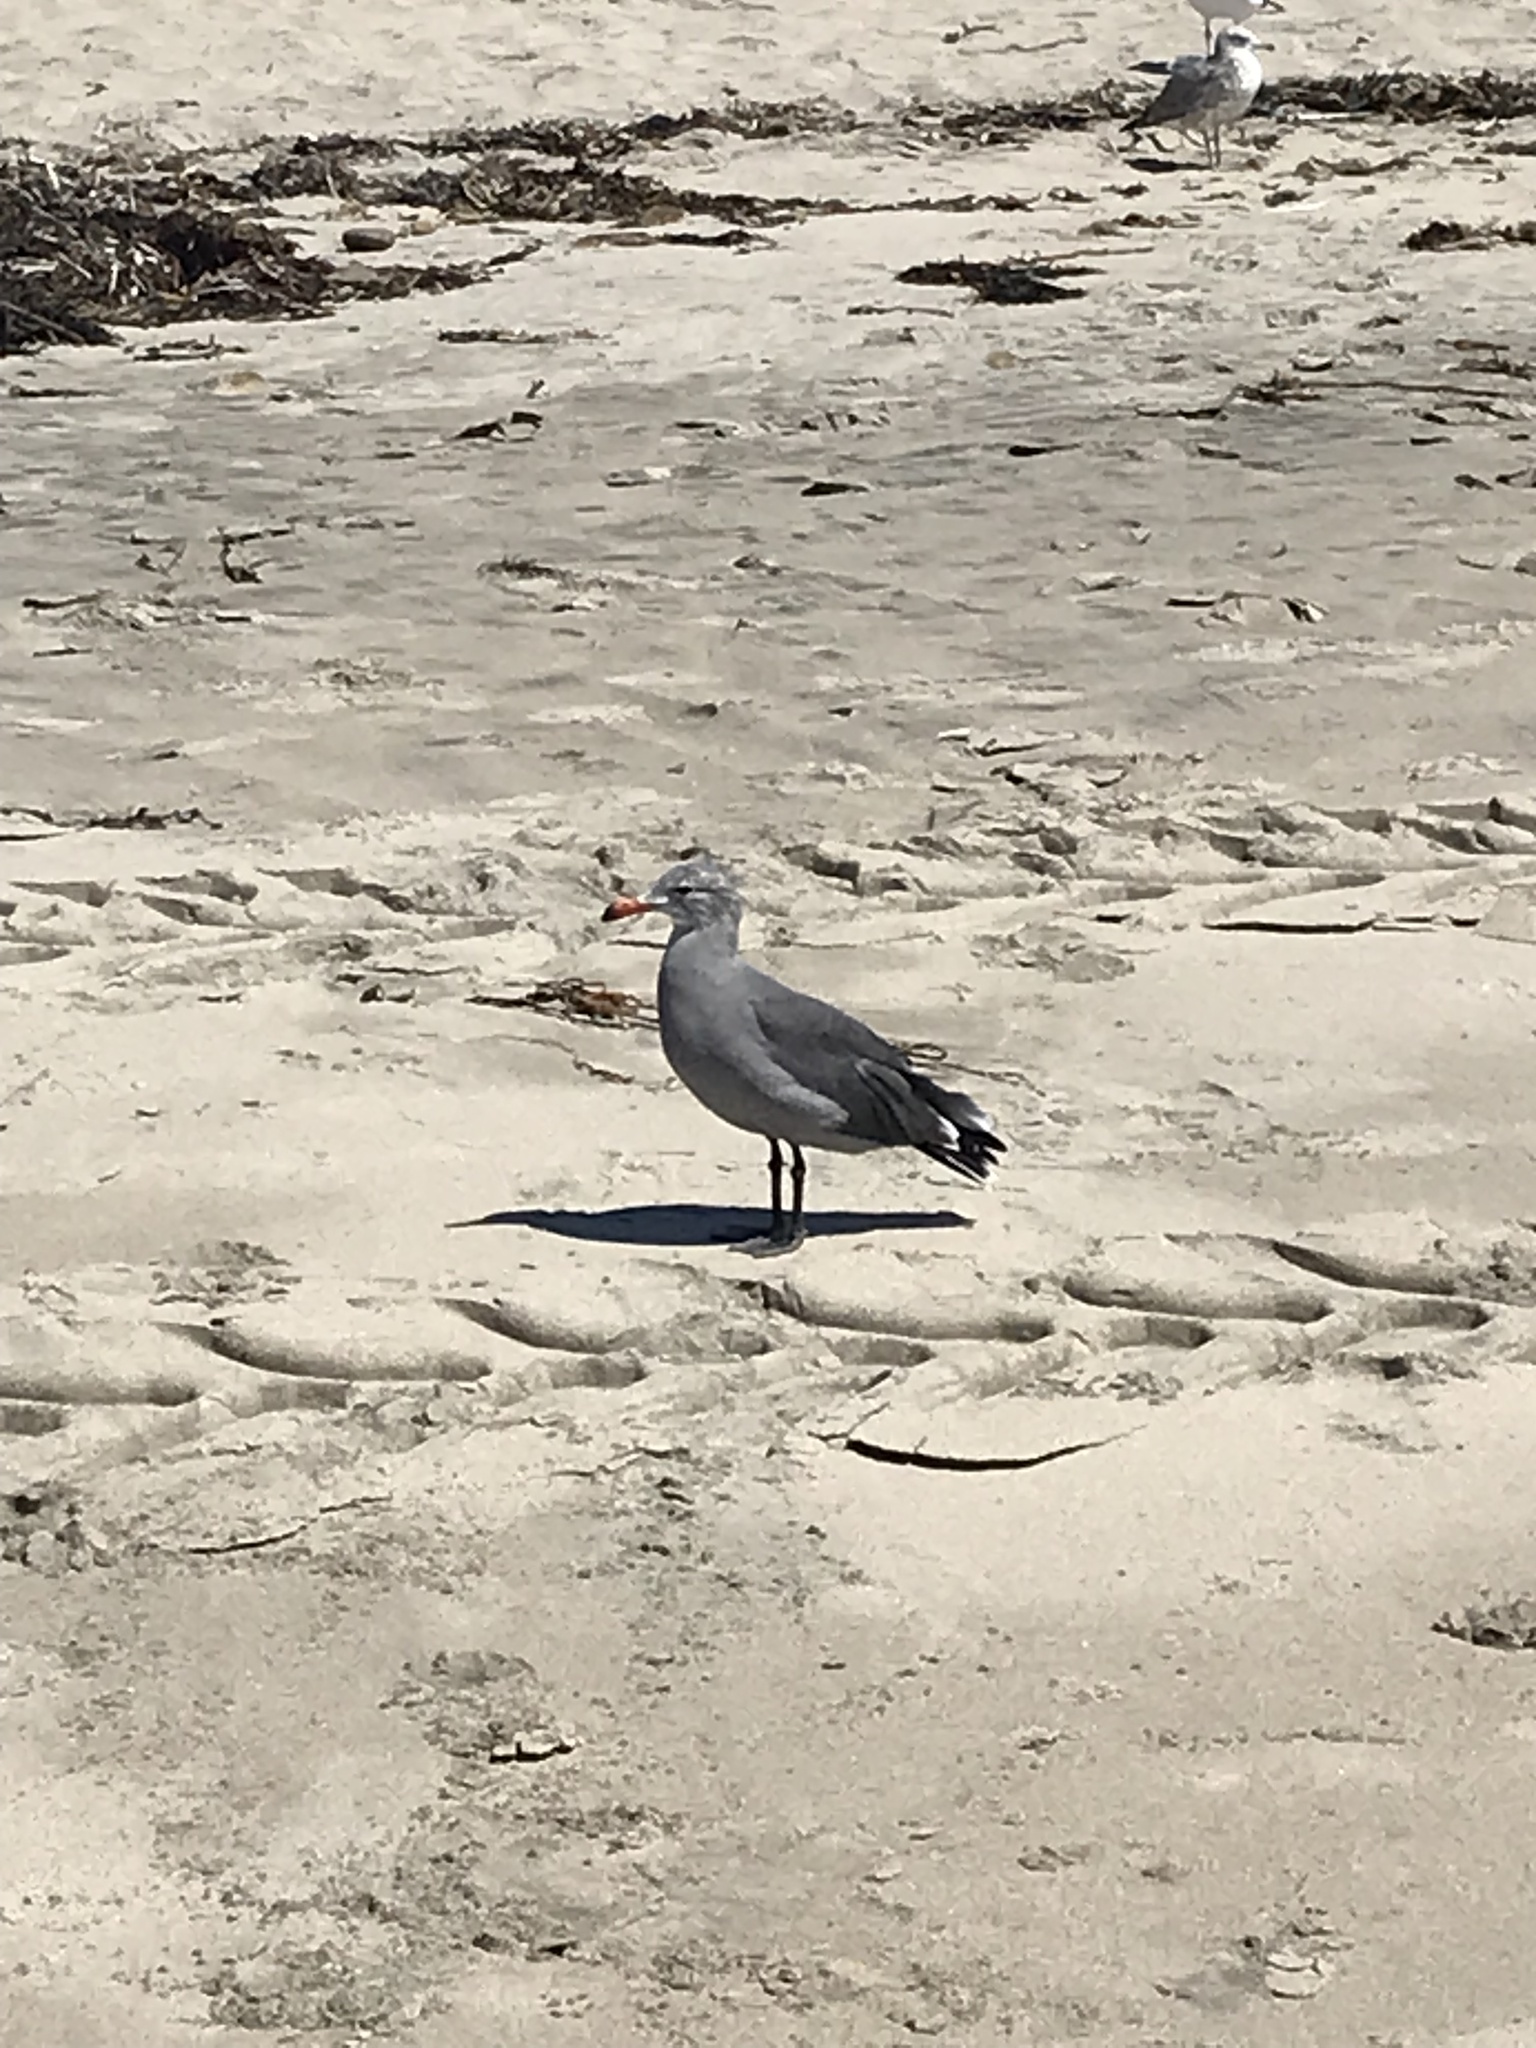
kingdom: Animalia
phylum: Chordata
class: Aves
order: Charadriiformes
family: Laridae
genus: Larus
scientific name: Larus heermanni
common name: Heermann's gull
